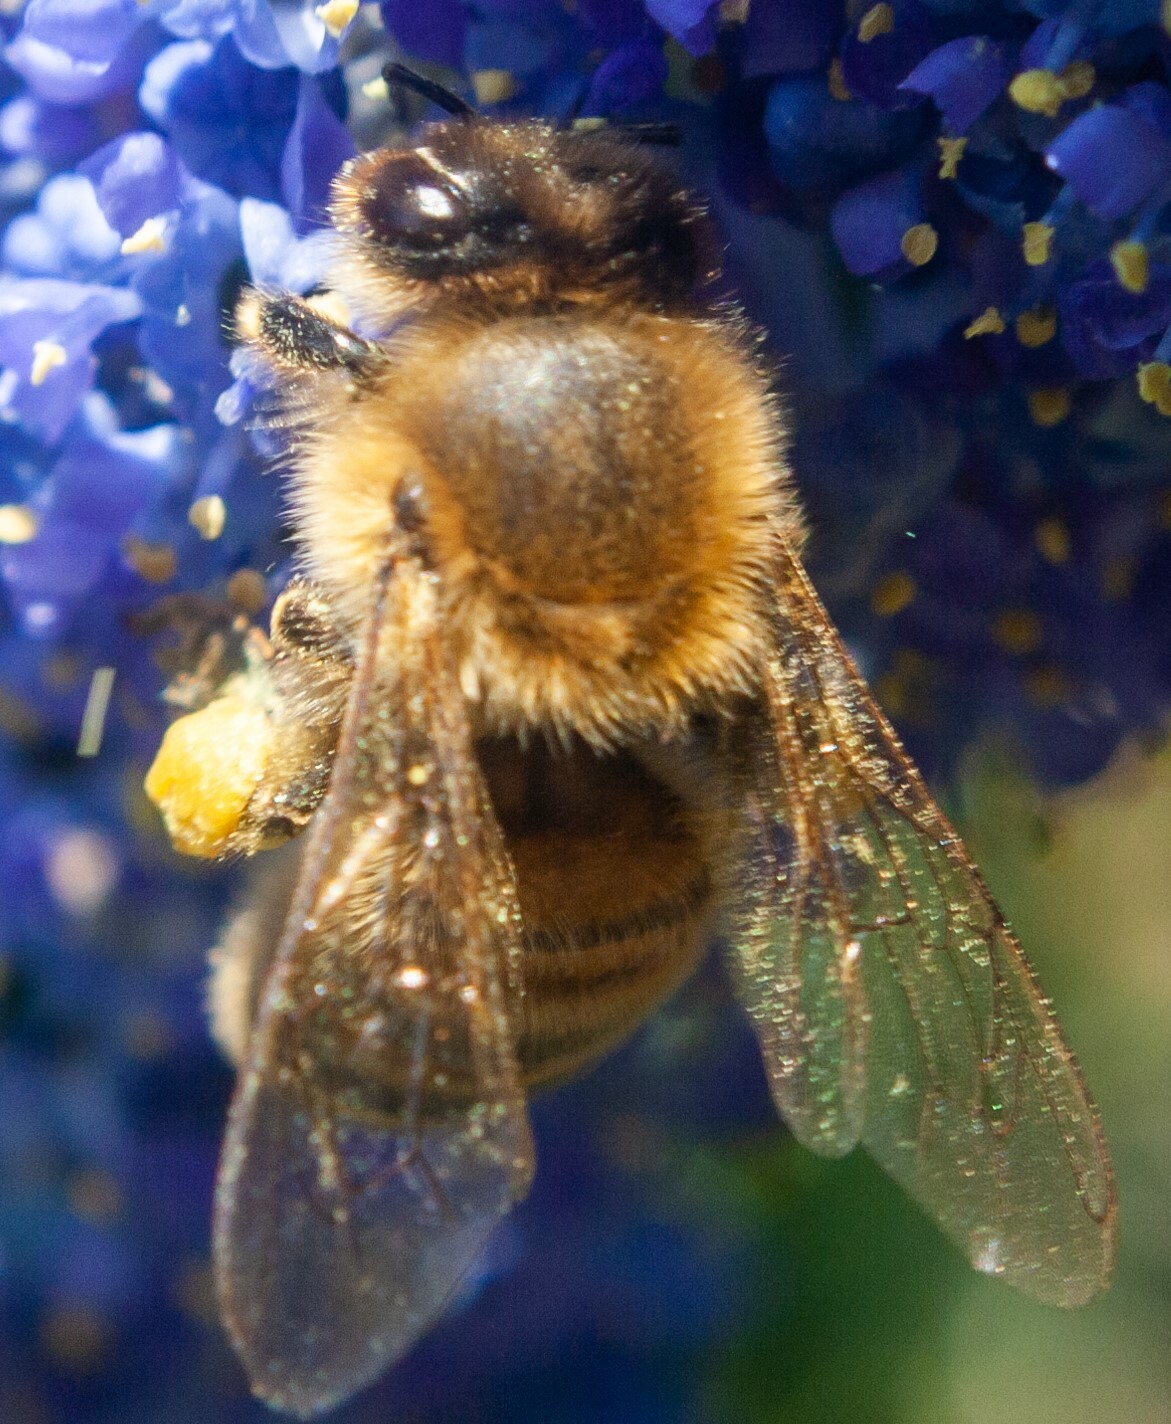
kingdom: Animalia
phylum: Arthropoda
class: Insecta
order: Hymenoptera
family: Apidae
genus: Apis
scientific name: Apis mellifera
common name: Honey bee
